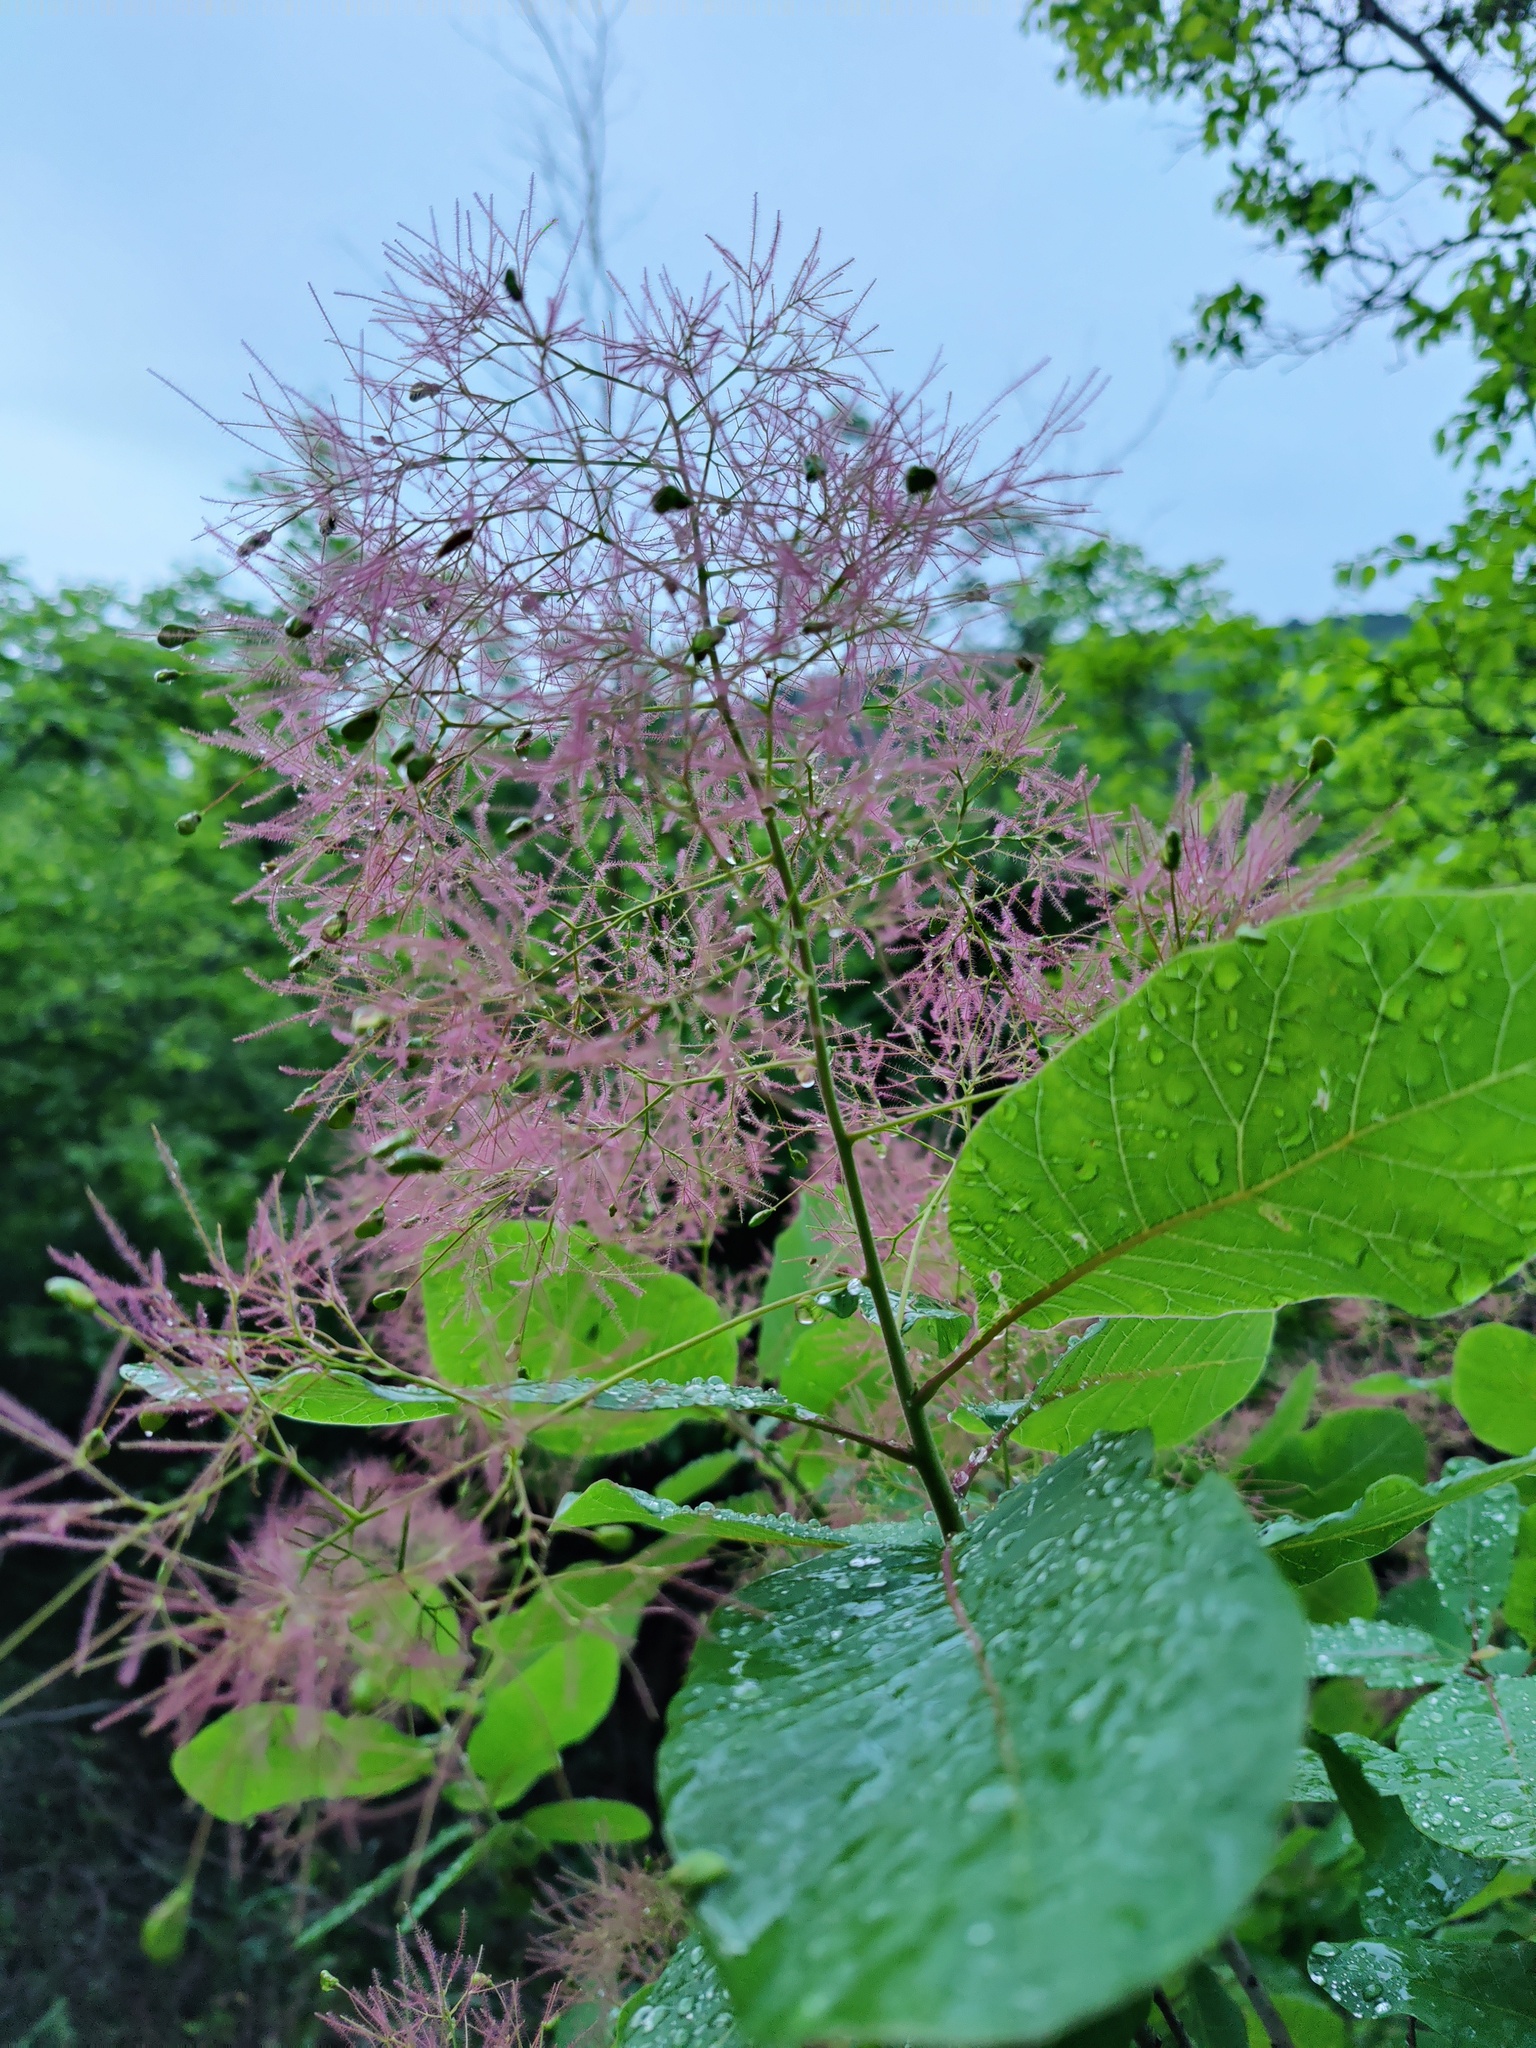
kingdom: Plantae
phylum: Tracheophyta
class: Magnoliopsida
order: Sapindales
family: Anacardiaceae
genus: Cotinus
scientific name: Cotinus coggygria
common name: Smoke-tree
